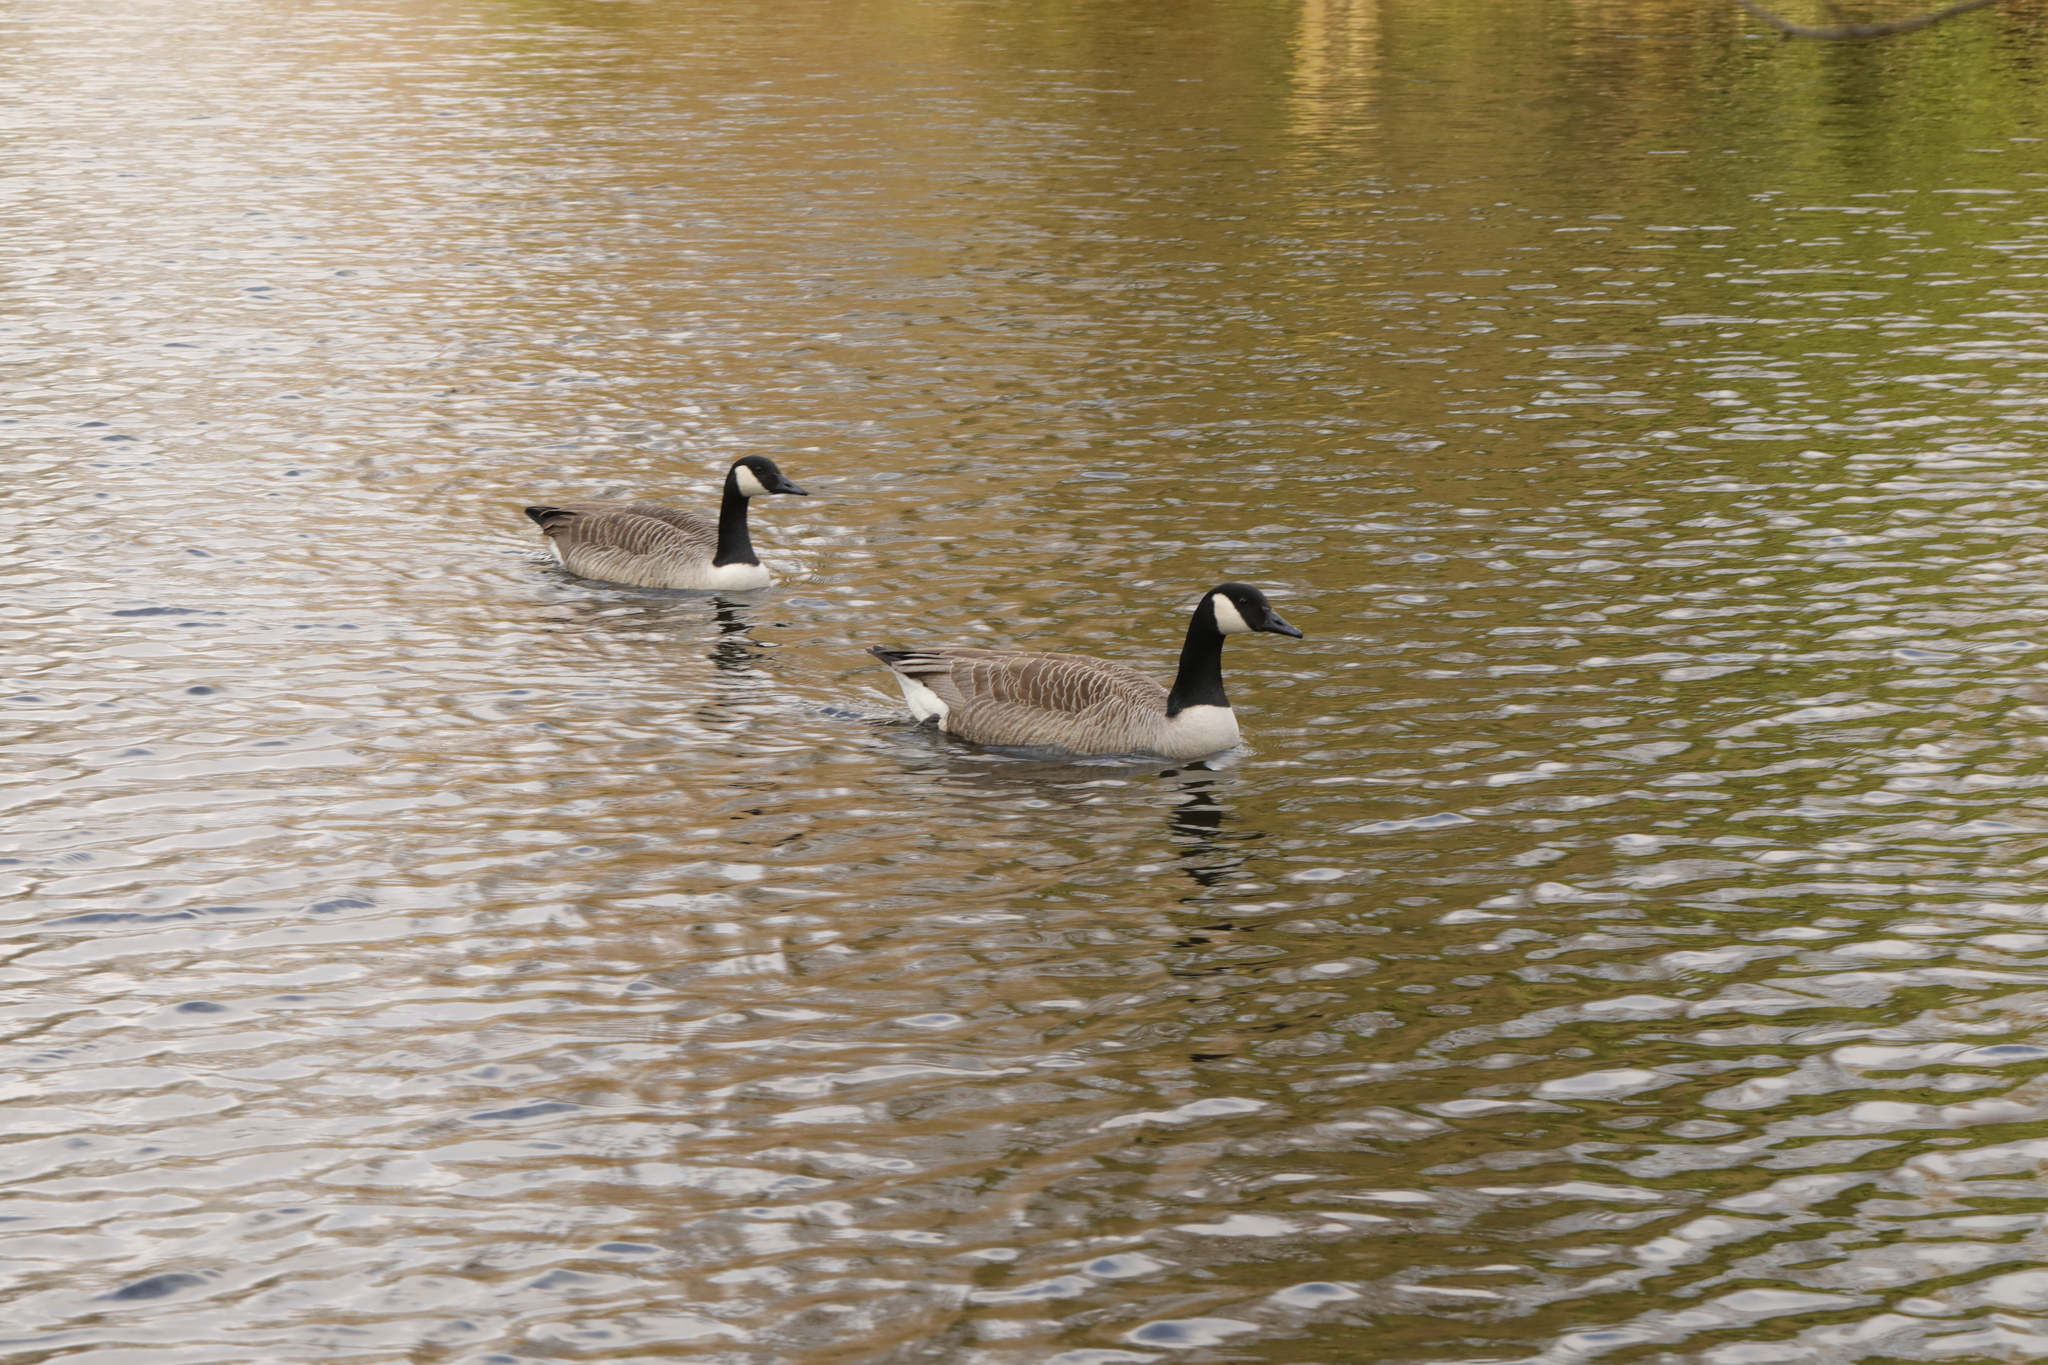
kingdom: Animalia
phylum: Chordata
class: Aves
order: Anseriformes
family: Anatidae
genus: Branta
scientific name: Branta canadensis
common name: Canada goose
